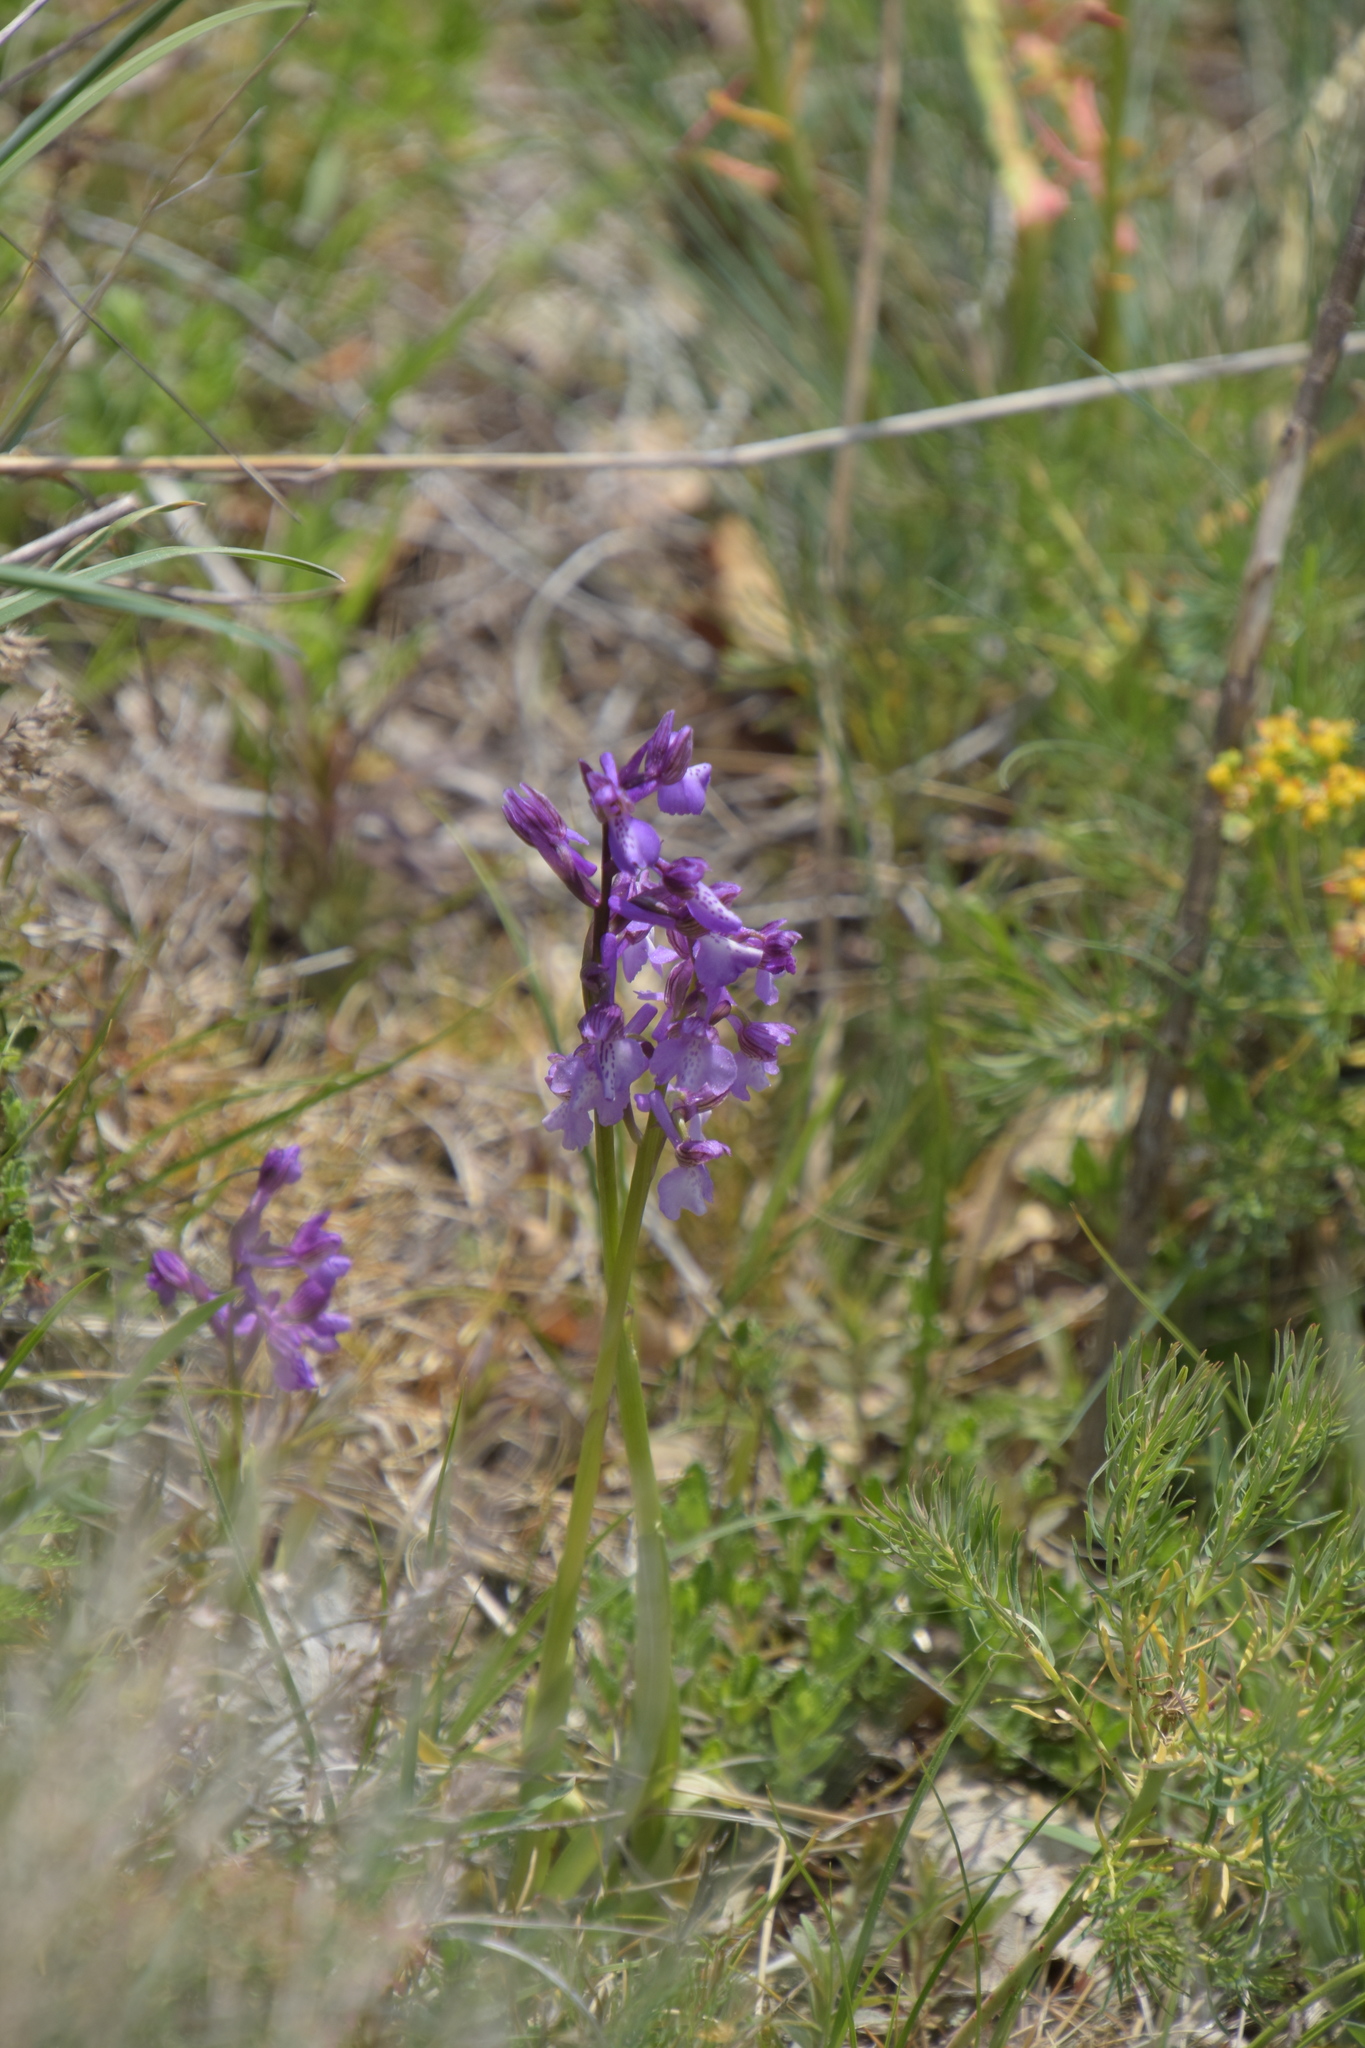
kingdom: Plantae
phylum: Tracheophyta
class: Liliopsida
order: Asparagales
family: Orchidaceae
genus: Anacamptis
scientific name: Anacamptis morio
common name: Green-winged orchid
